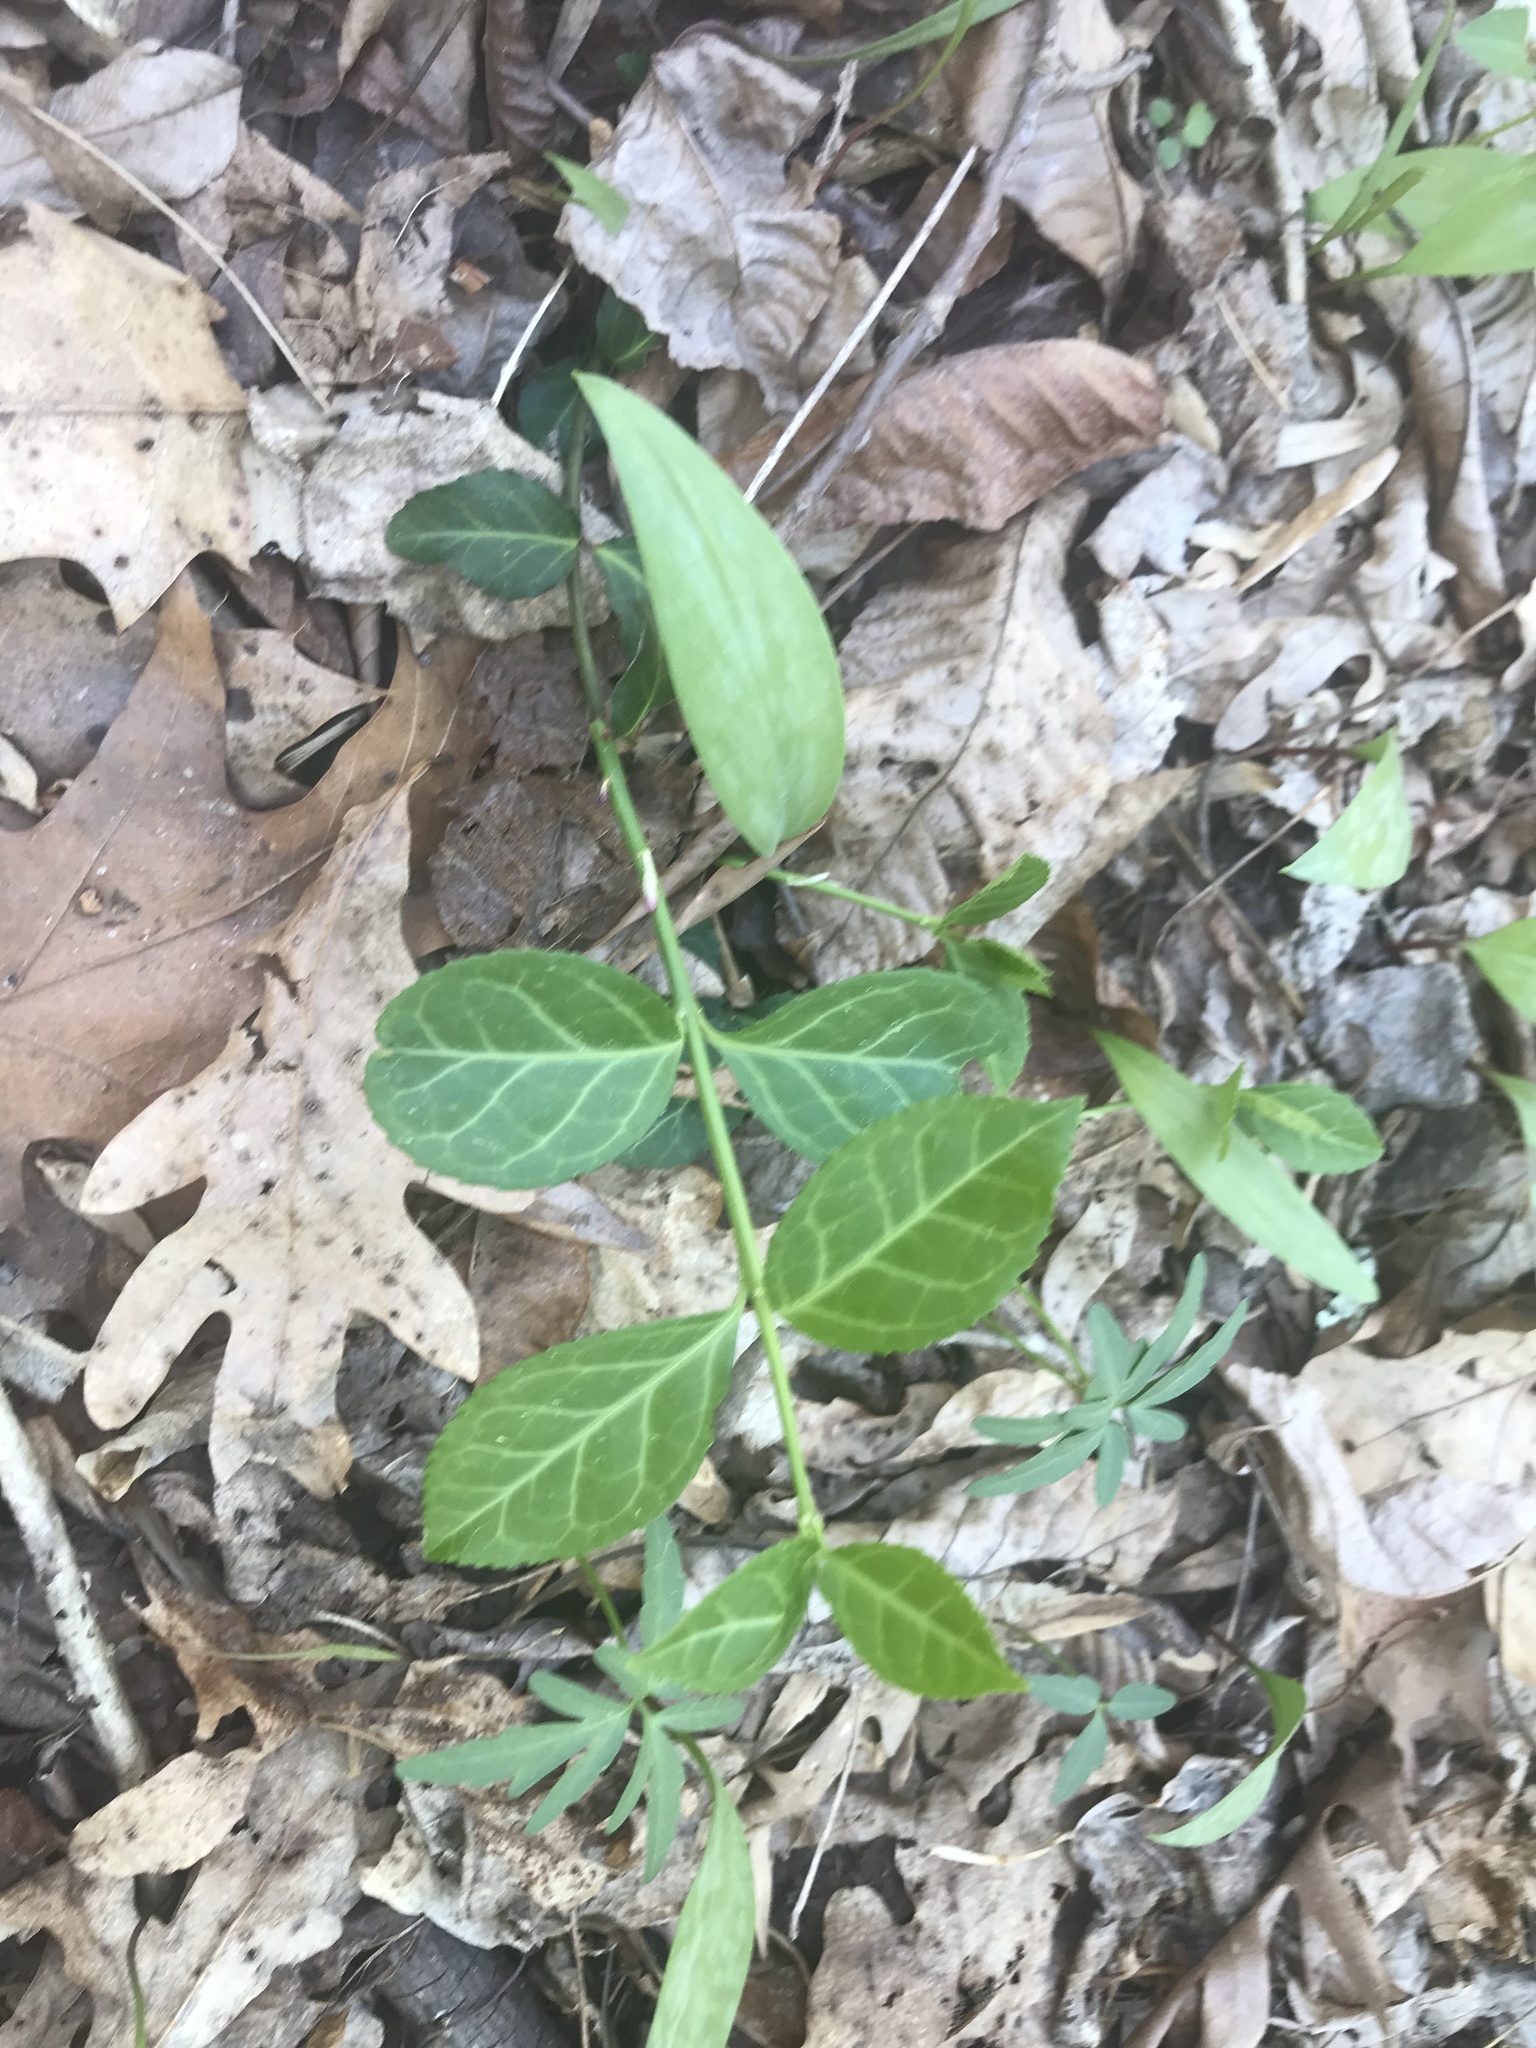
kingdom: Plantae
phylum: Tracheophyta
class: Magnoliopsida
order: Celastrales
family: Celastraceae
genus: Euonymus
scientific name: Euonymus fortunei
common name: Climbing euonymus
